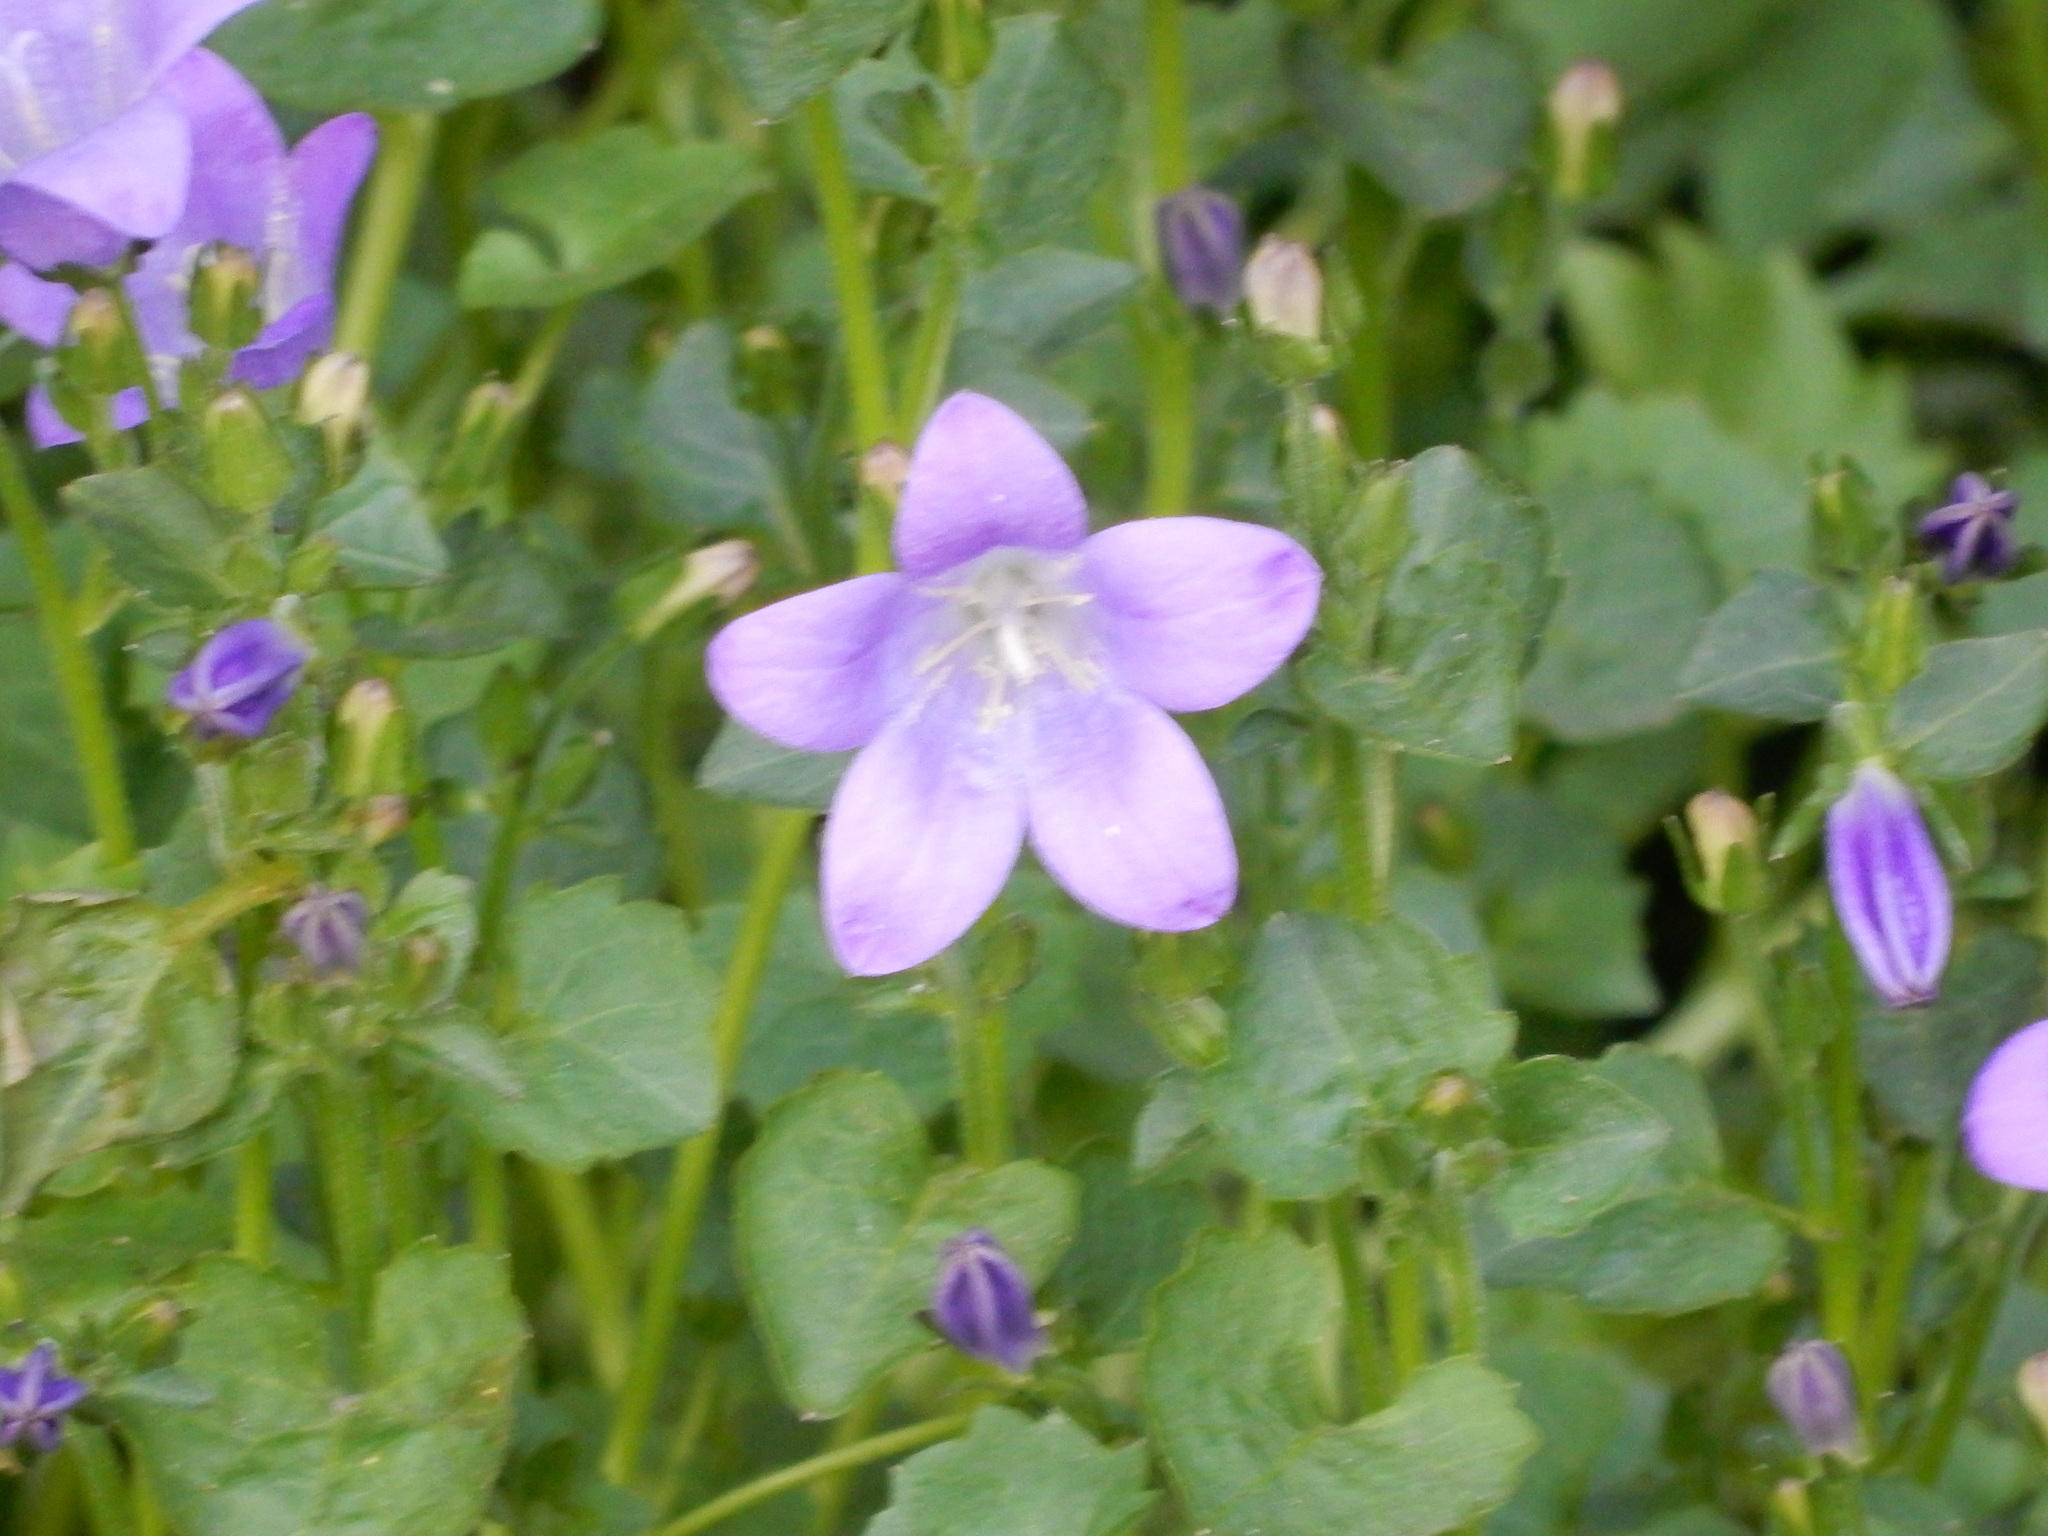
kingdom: Plantae
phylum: Tracheophyta
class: Magnoliopsida
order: Asterales
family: Campanulaceae
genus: Campanula
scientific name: Campanula poscharskyana
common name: Trailing bellflower
